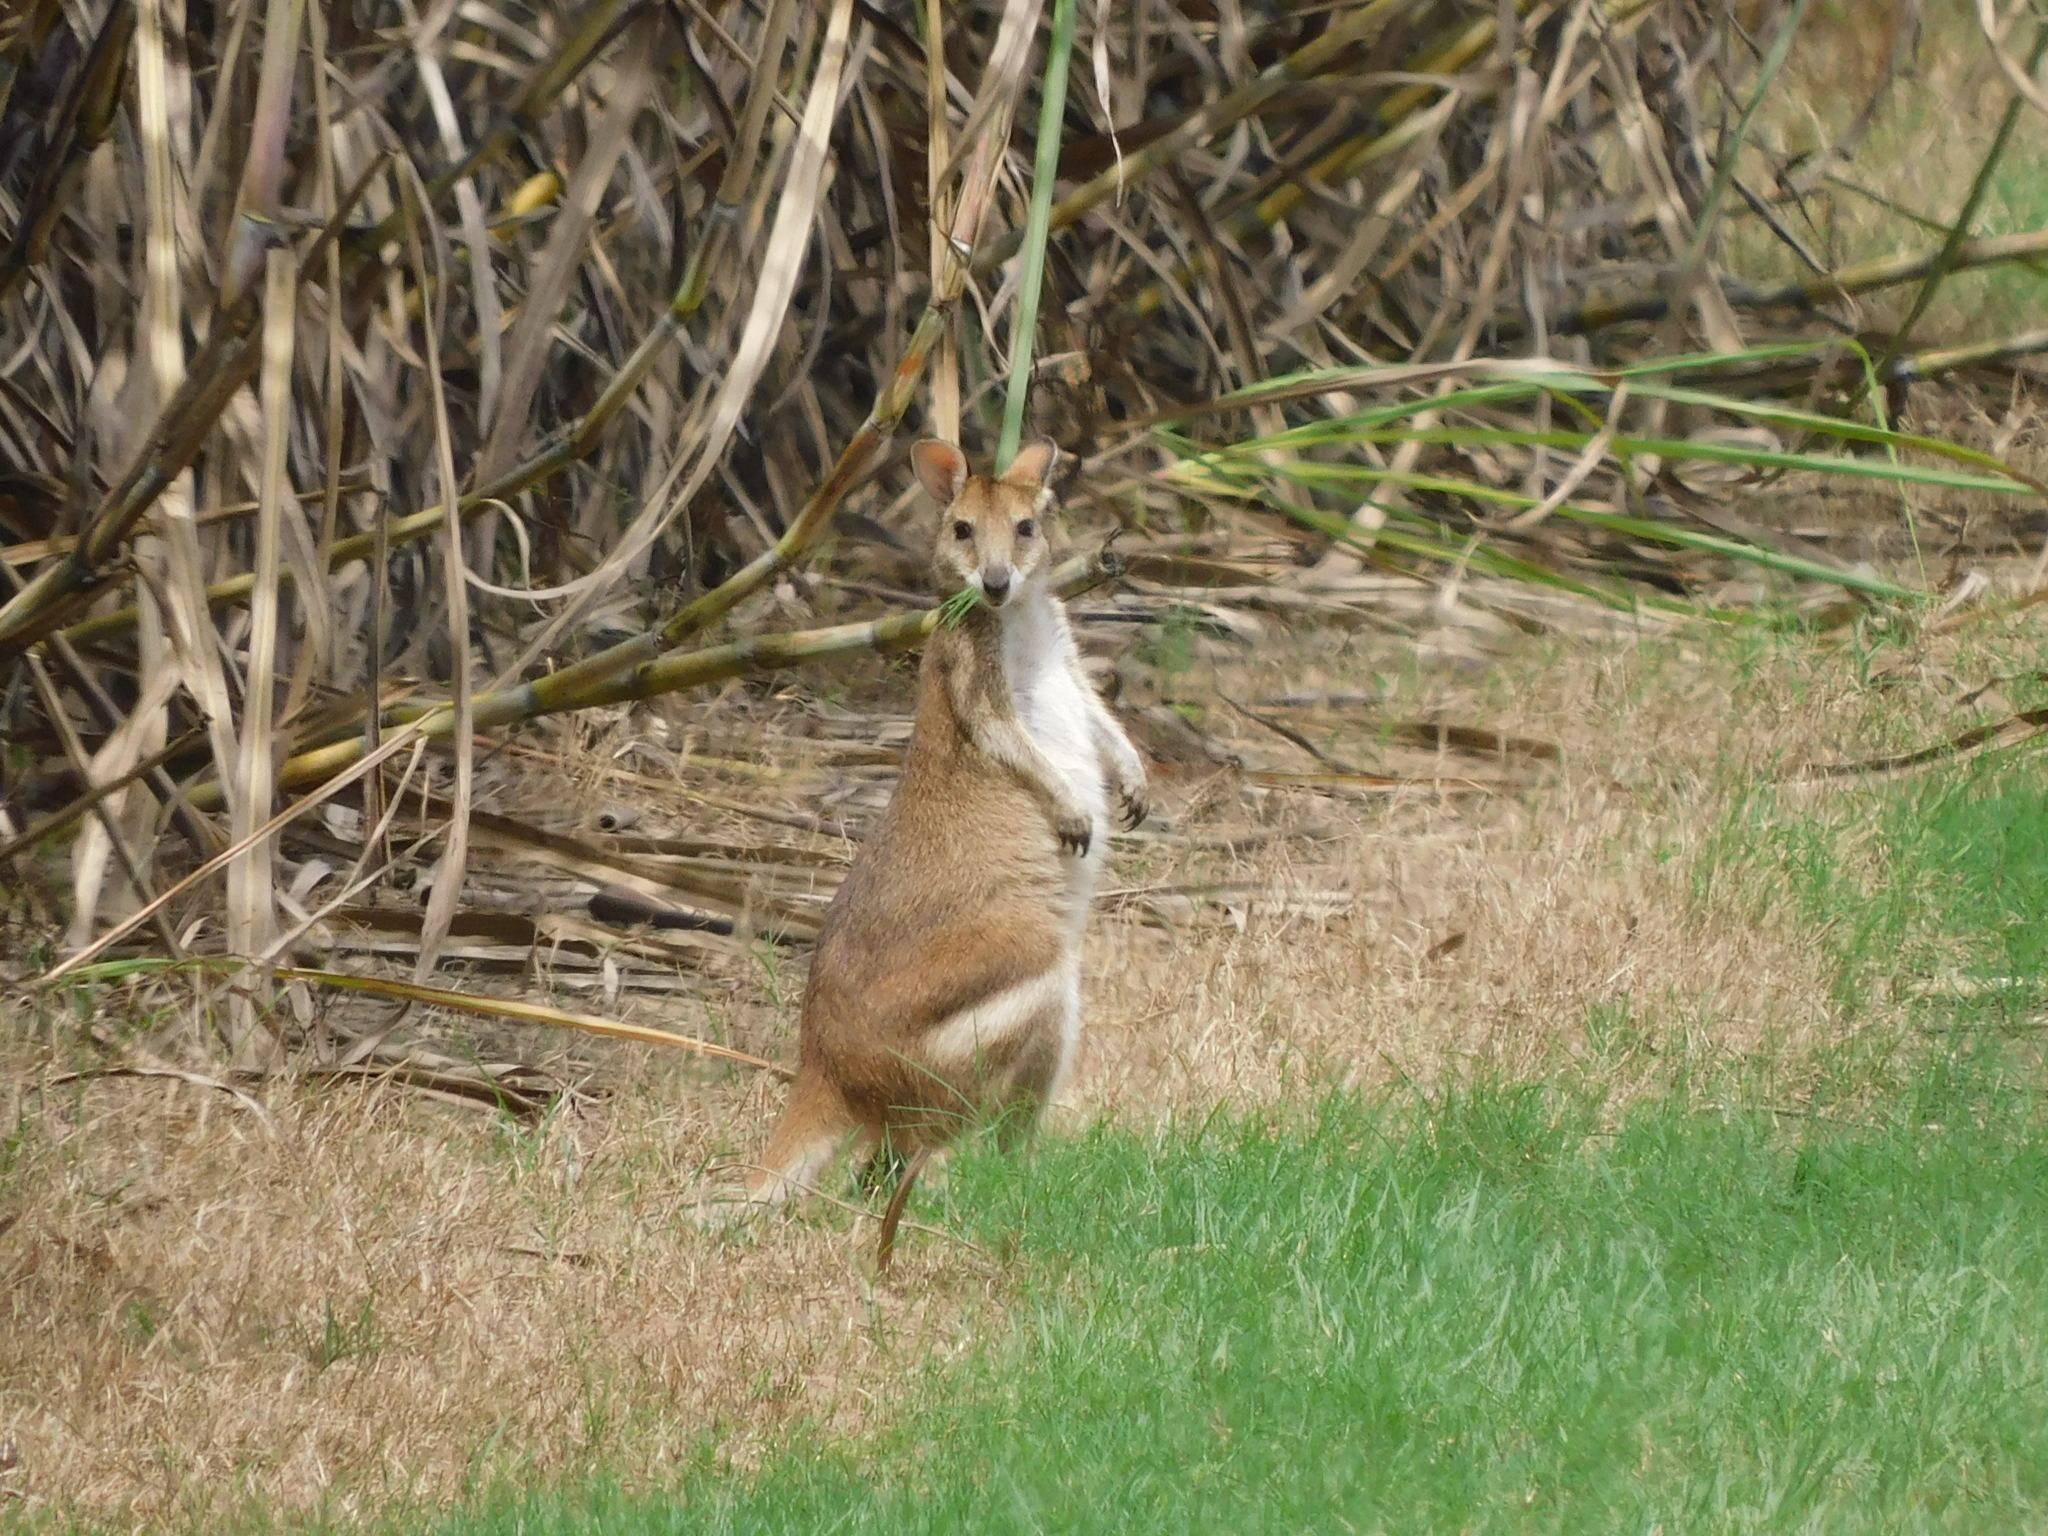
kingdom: Animalia
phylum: Chordata
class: Mammalia
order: Diprotodontia
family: Macropodidae
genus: Macropus
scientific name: Macropus agilis
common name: Agile wallaby
